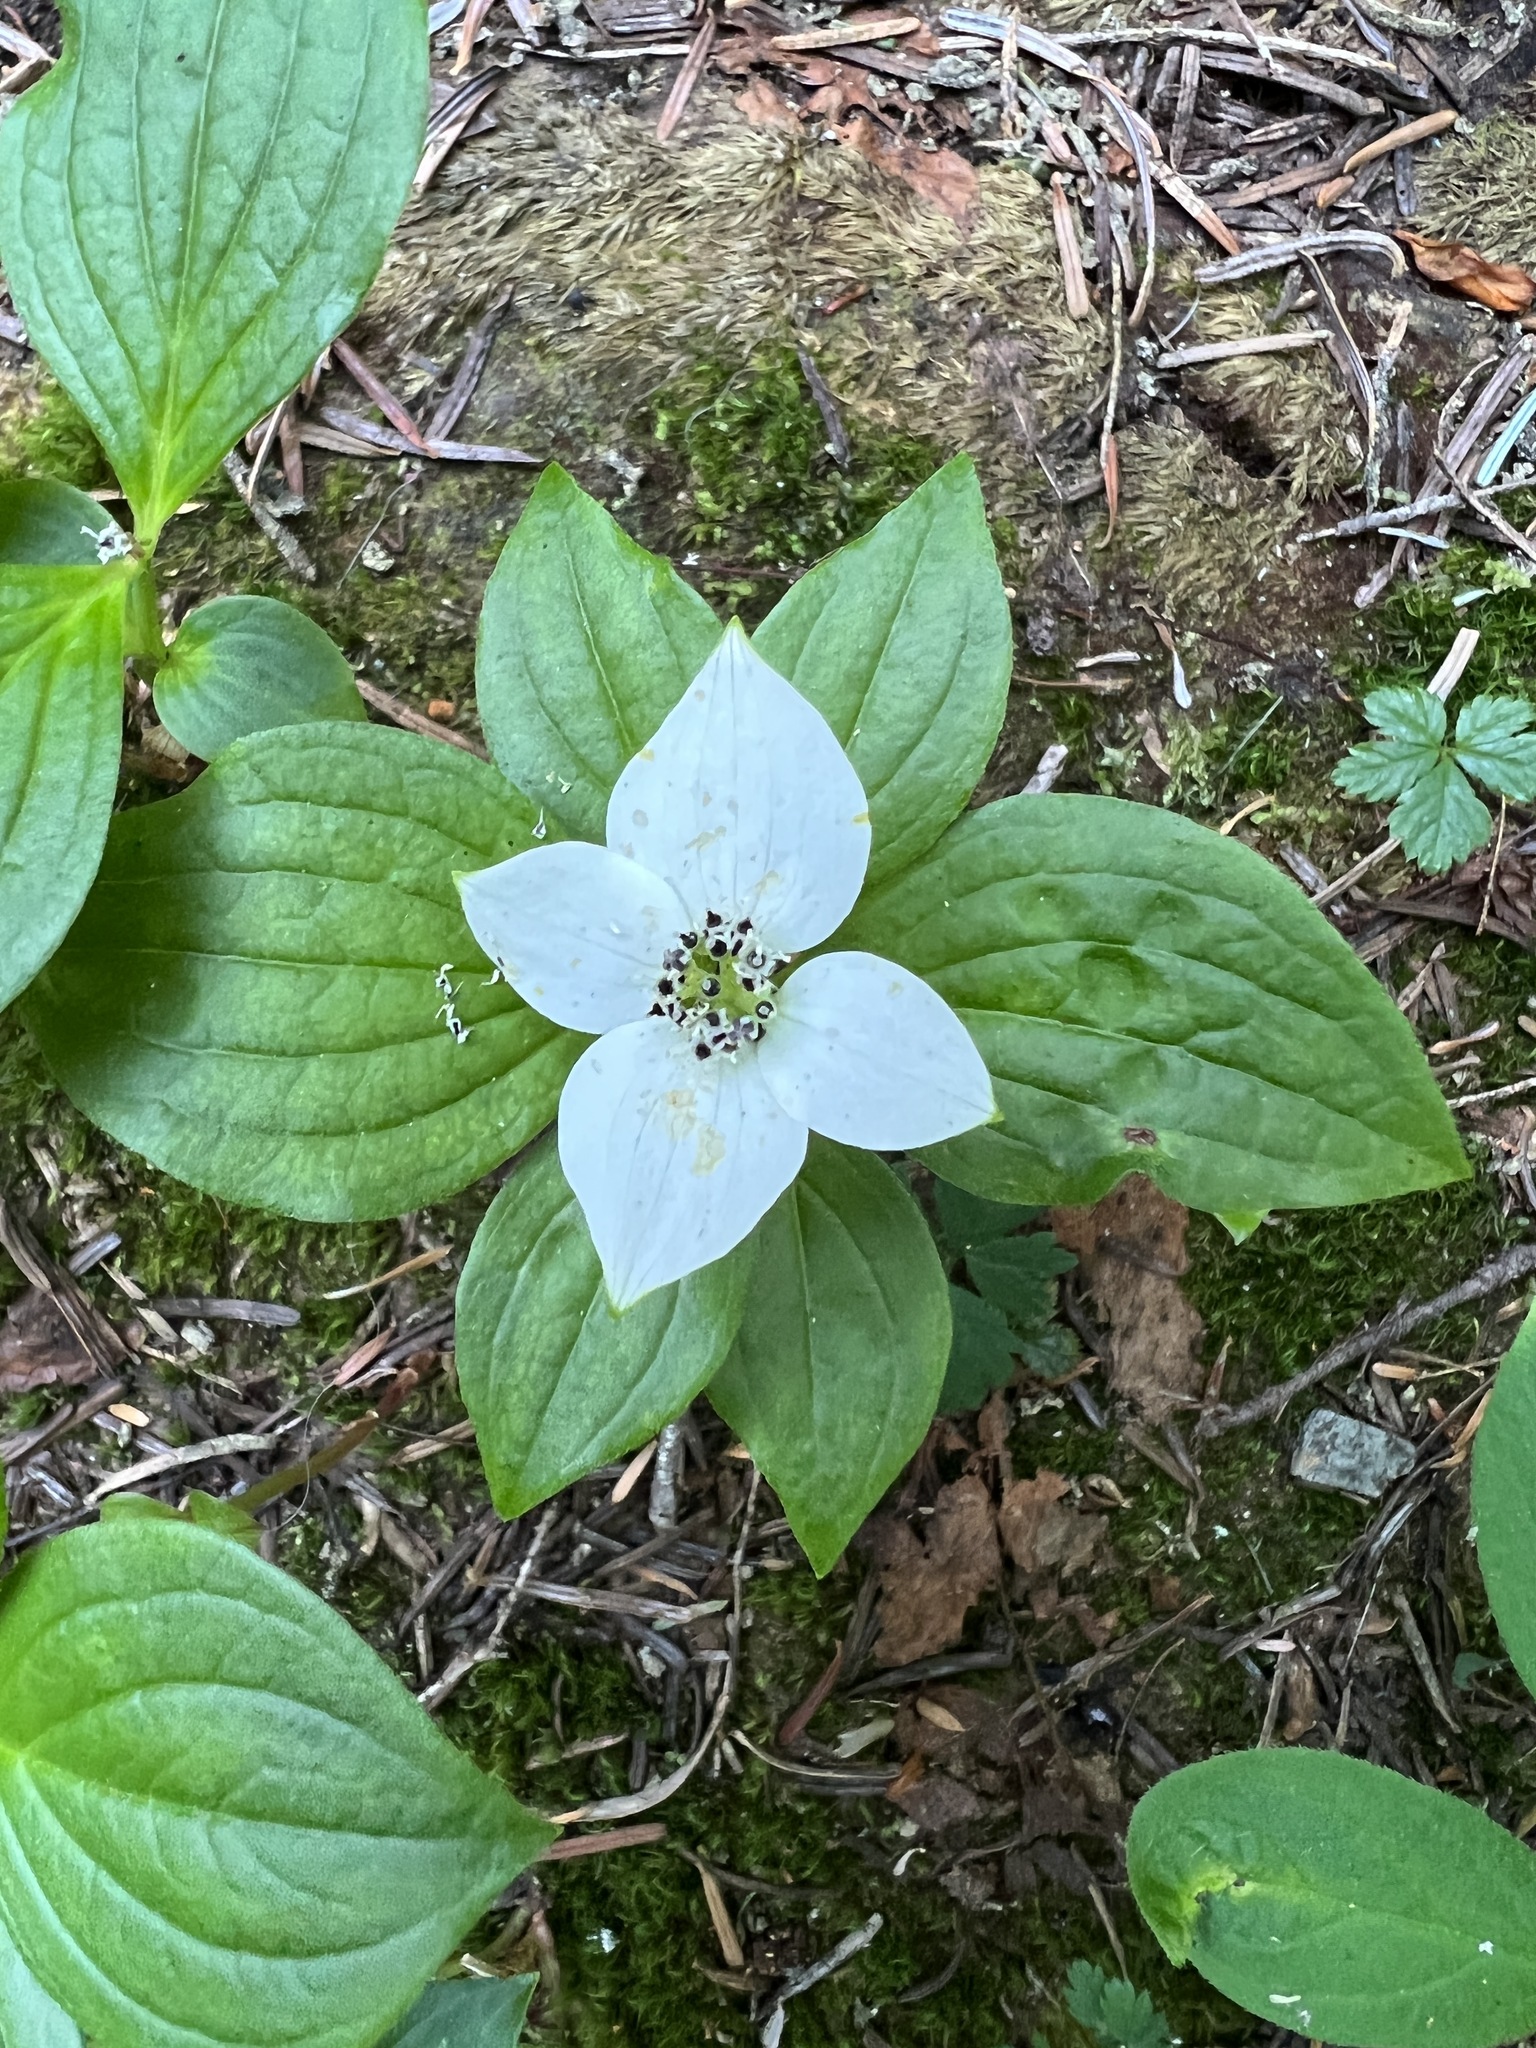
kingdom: Plantae
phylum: Tracheophyta
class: Magnoliopsida
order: Cornales
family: Cornaceae
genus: Cornus
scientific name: Cornus unalaschkensis
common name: Alaska bunchberry
